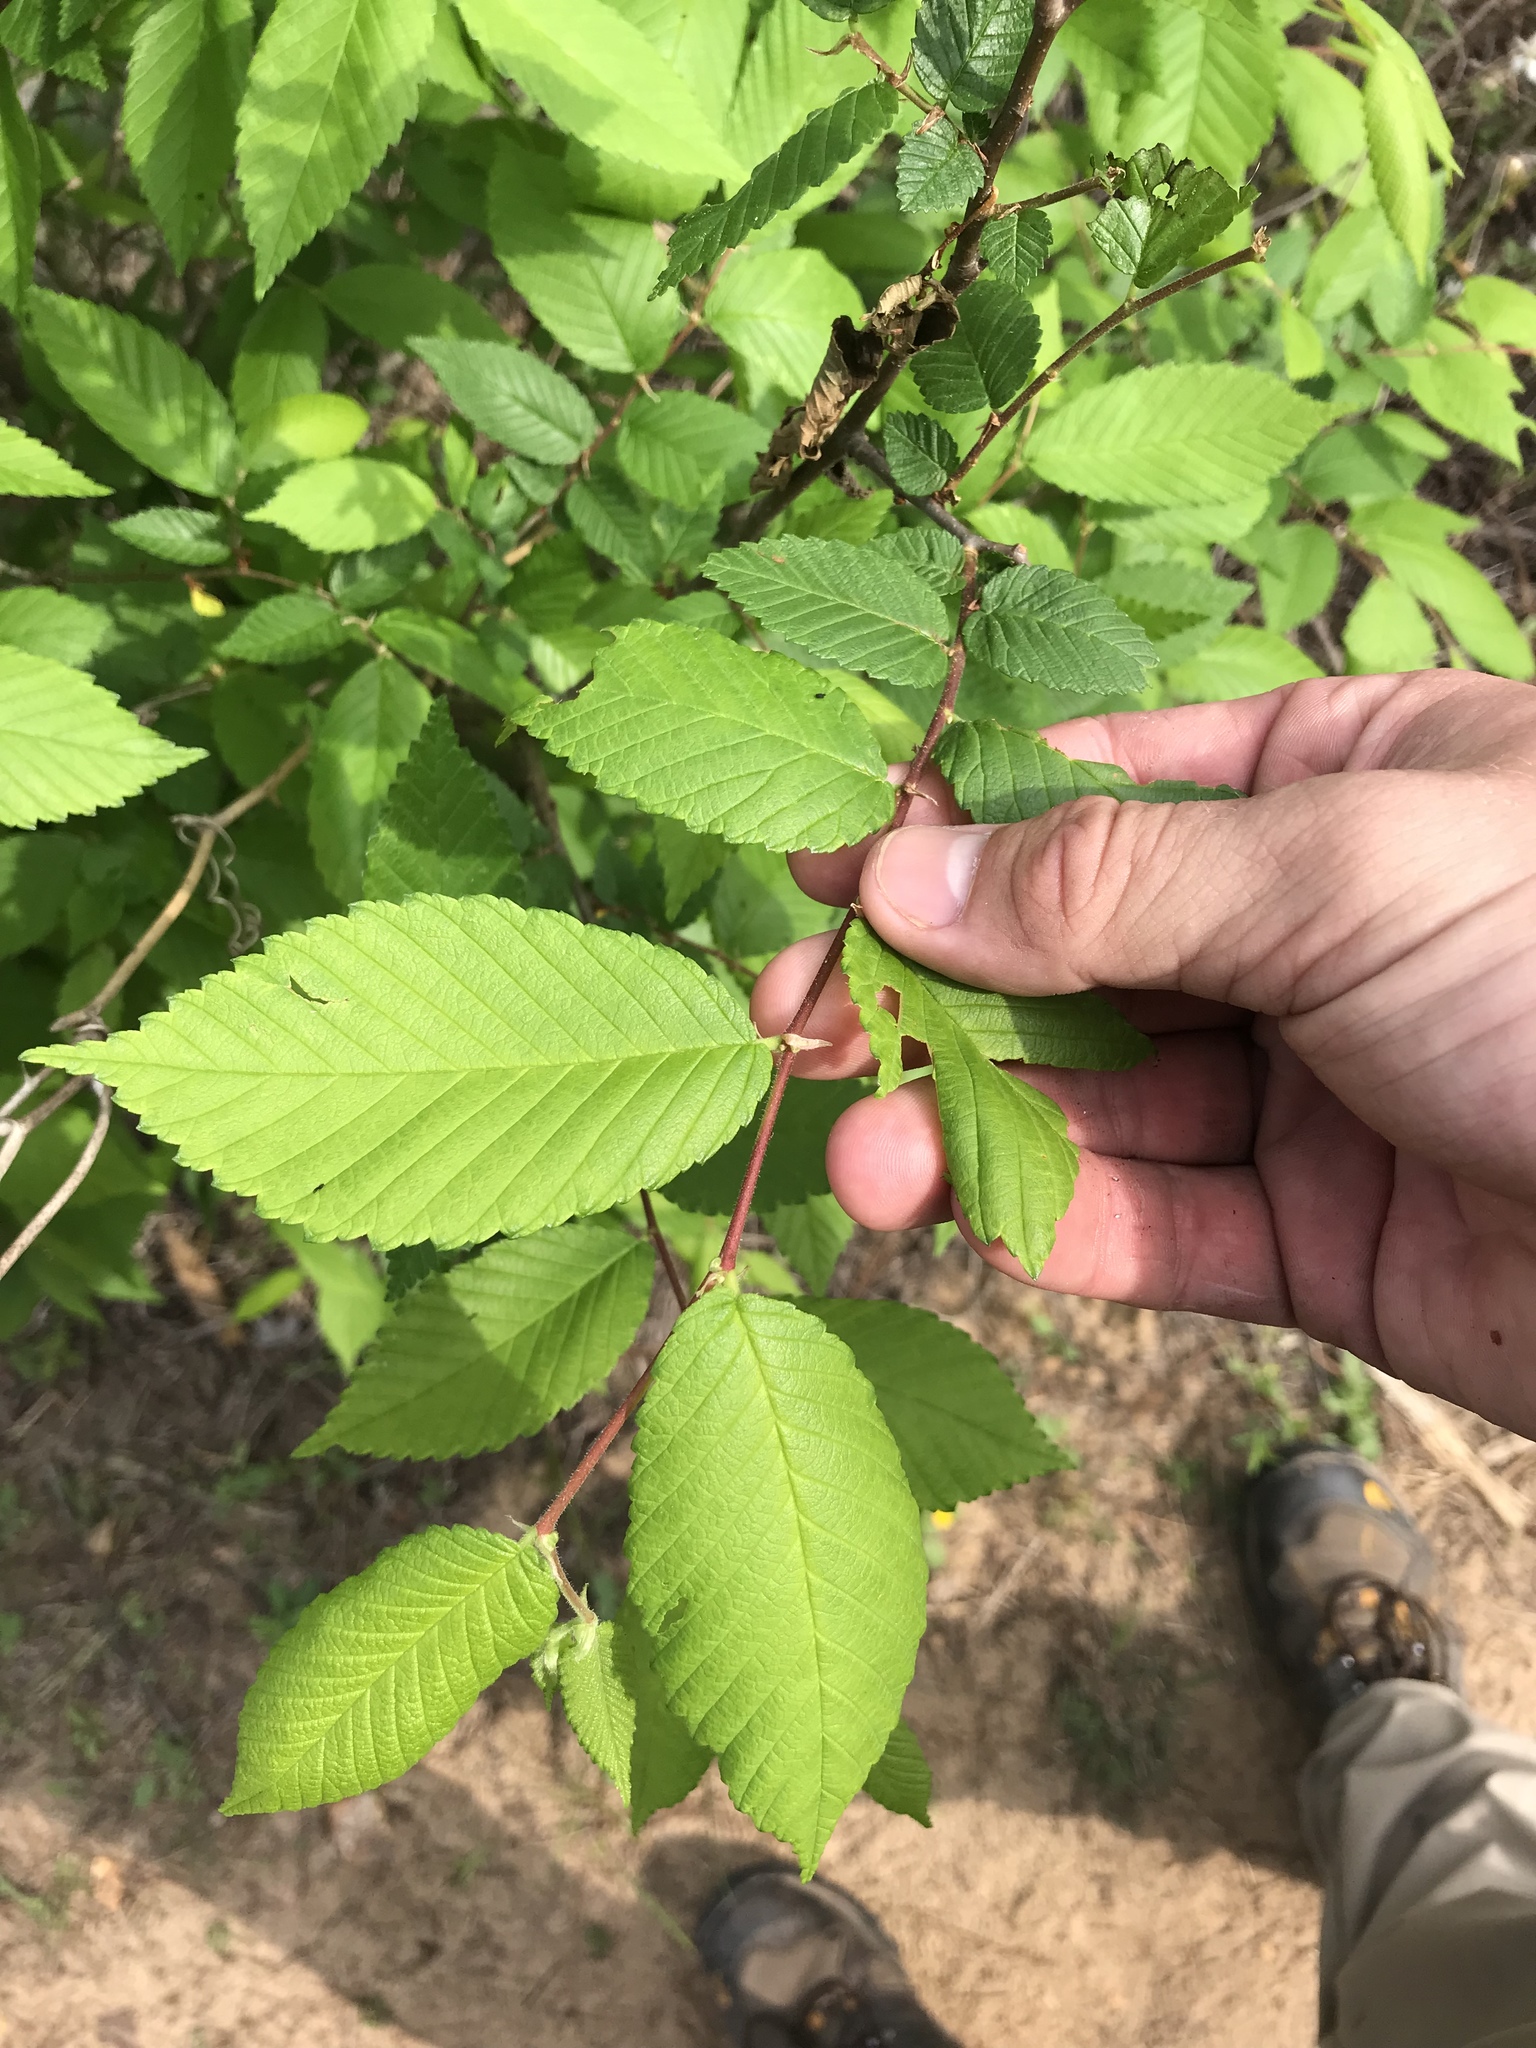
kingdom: Plantae
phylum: Tracheophyta
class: Magnoliopsida
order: Rosales
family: Ulmaceae
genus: Ulmus
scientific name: Ulmus americana
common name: American elm
